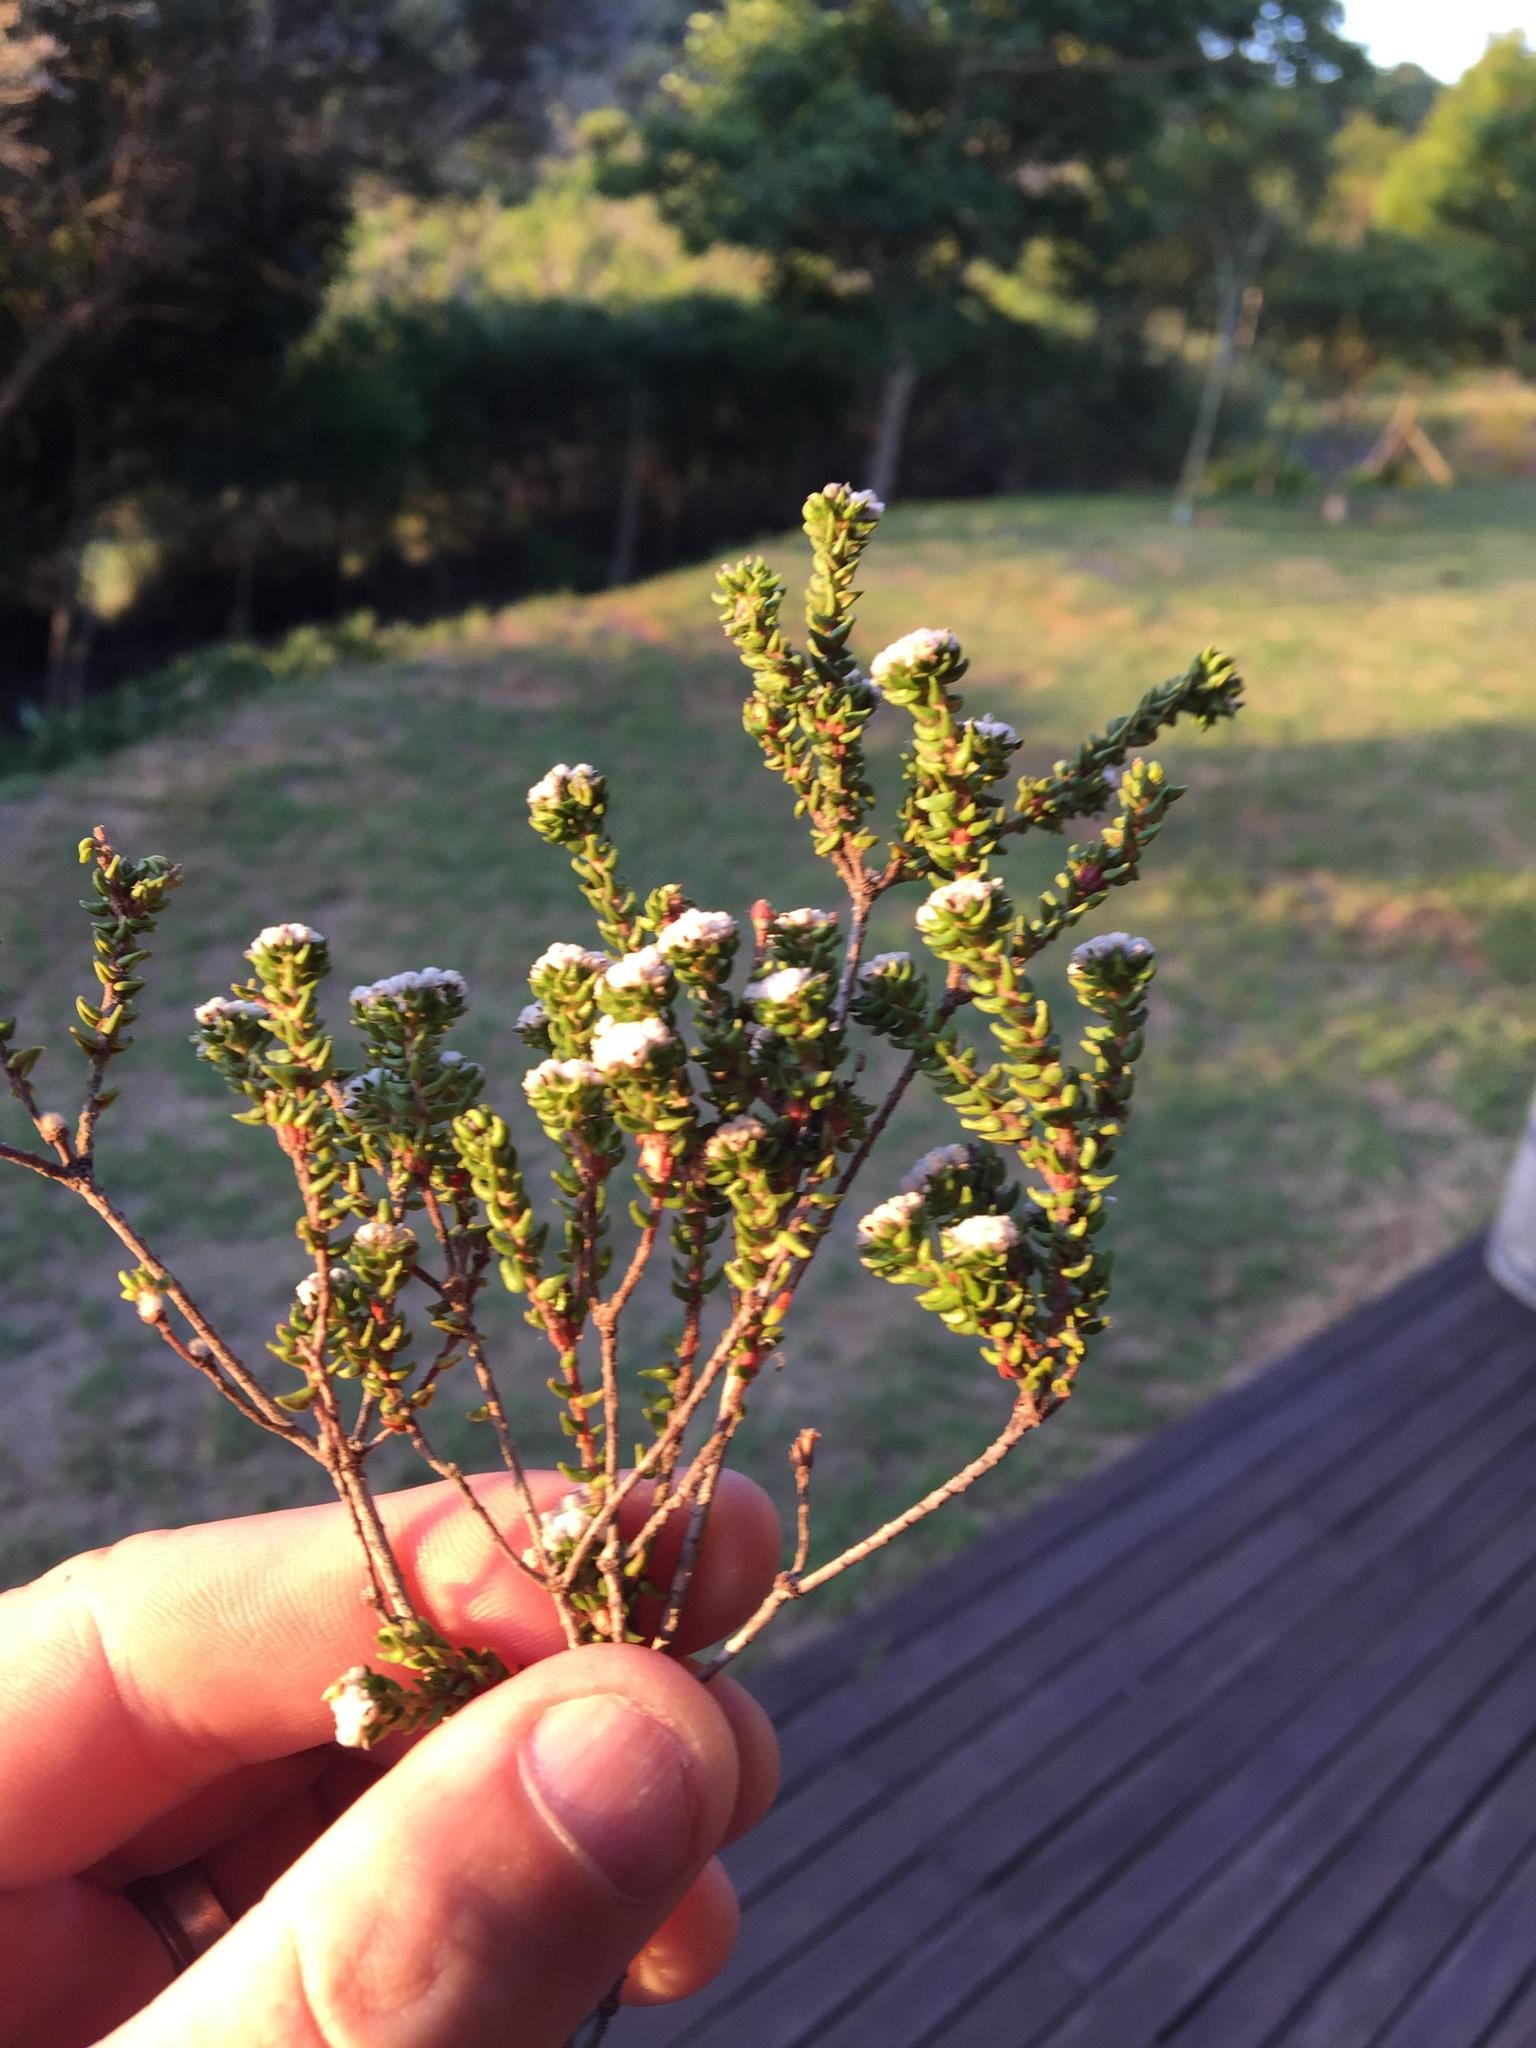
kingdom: Plantae
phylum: Tracheophyta
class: Magnoliopsida
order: Rosales
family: Rhamnaceae
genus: Phylica
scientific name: Phylica debilis
